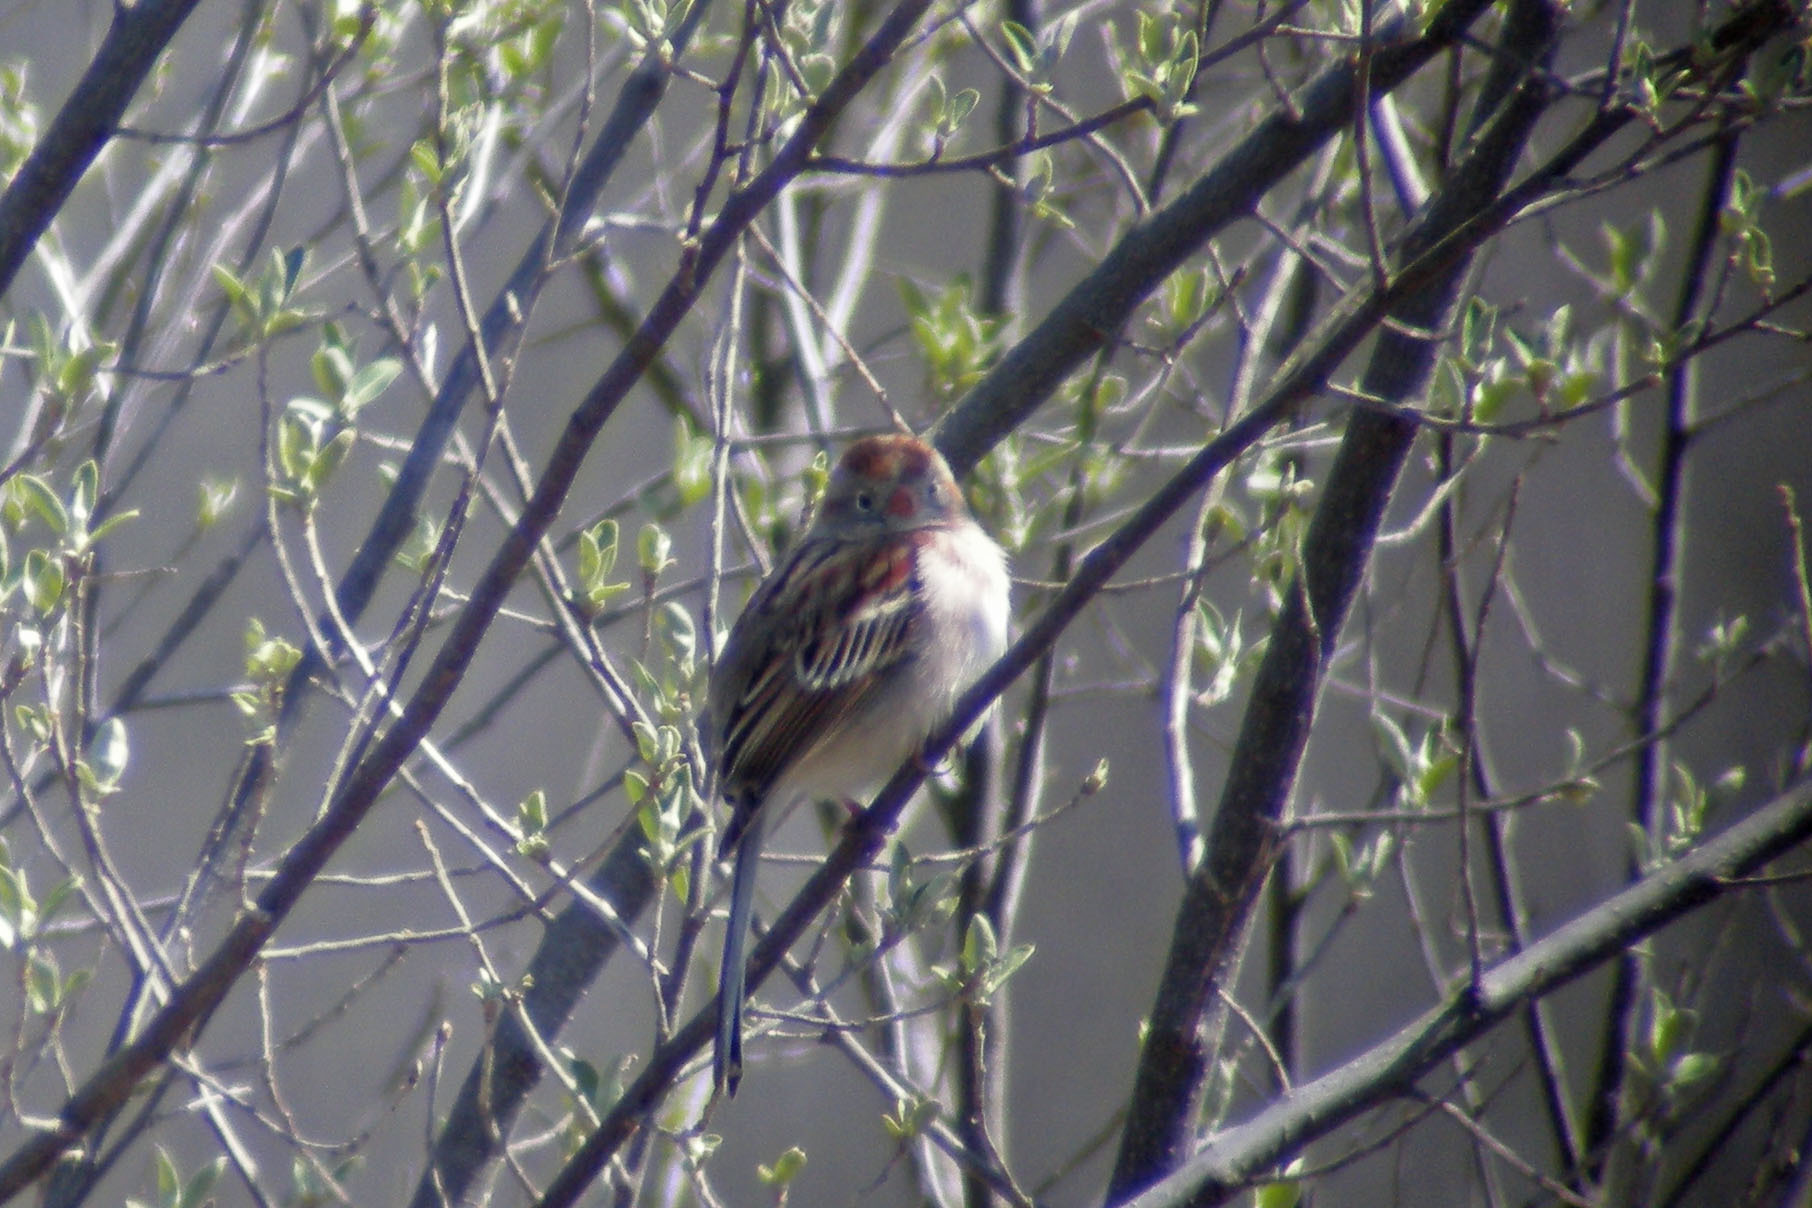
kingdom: Animalia
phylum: Chordata
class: Aves
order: Passeriformes
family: Passerellidae
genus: Spizella
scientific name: Spizella pusilla
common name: Field sparrow
